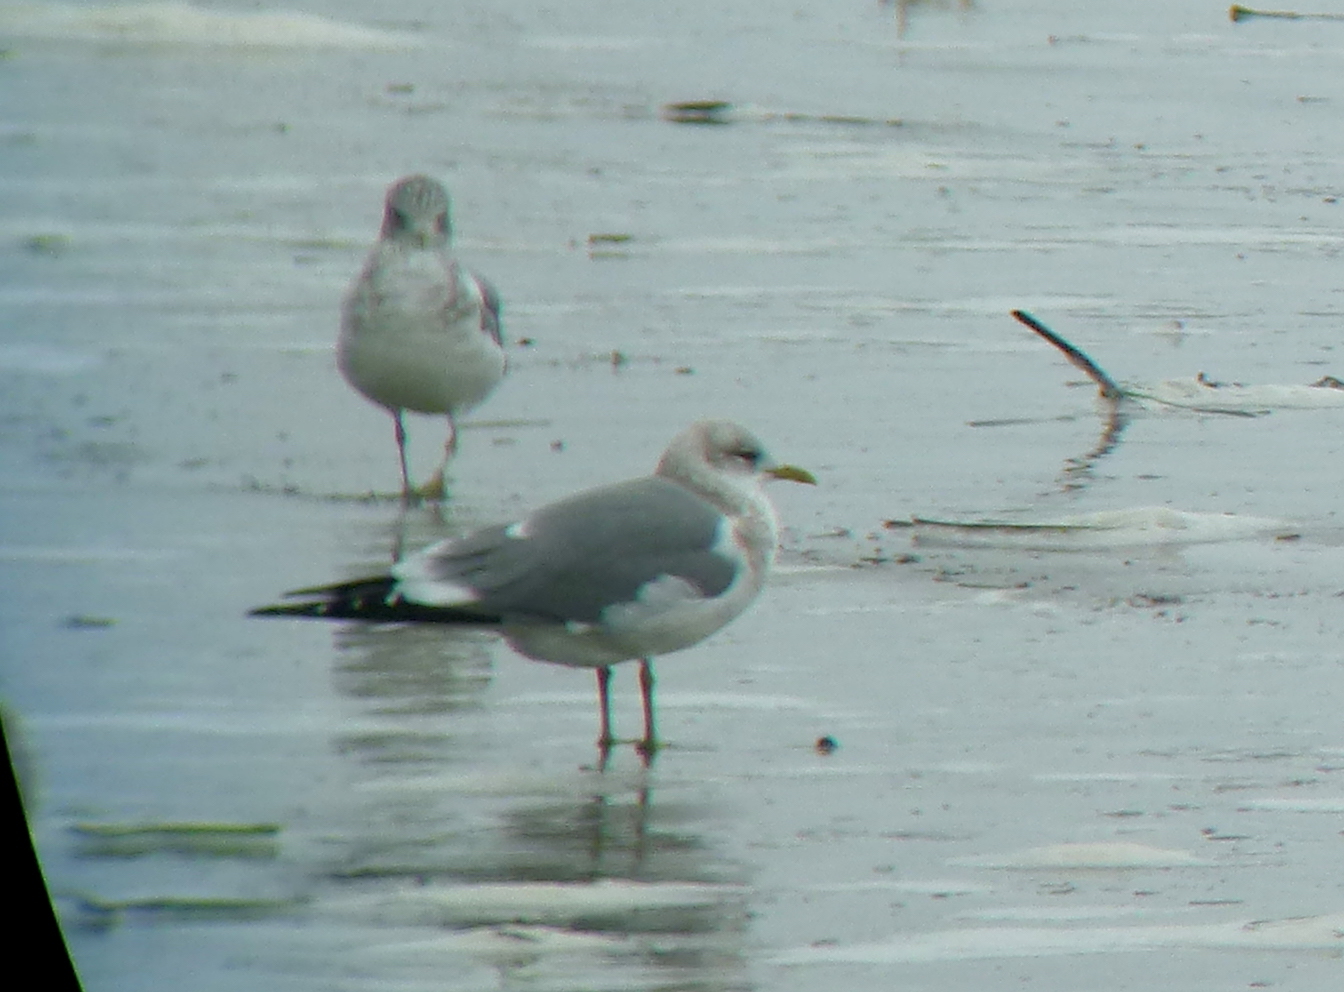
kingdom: Animalia
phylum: Chordata
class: Aves
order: Charadriiformes
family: Laridae
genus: Larus
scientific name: Larus brachyrhynchus
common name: Short-billed gull
